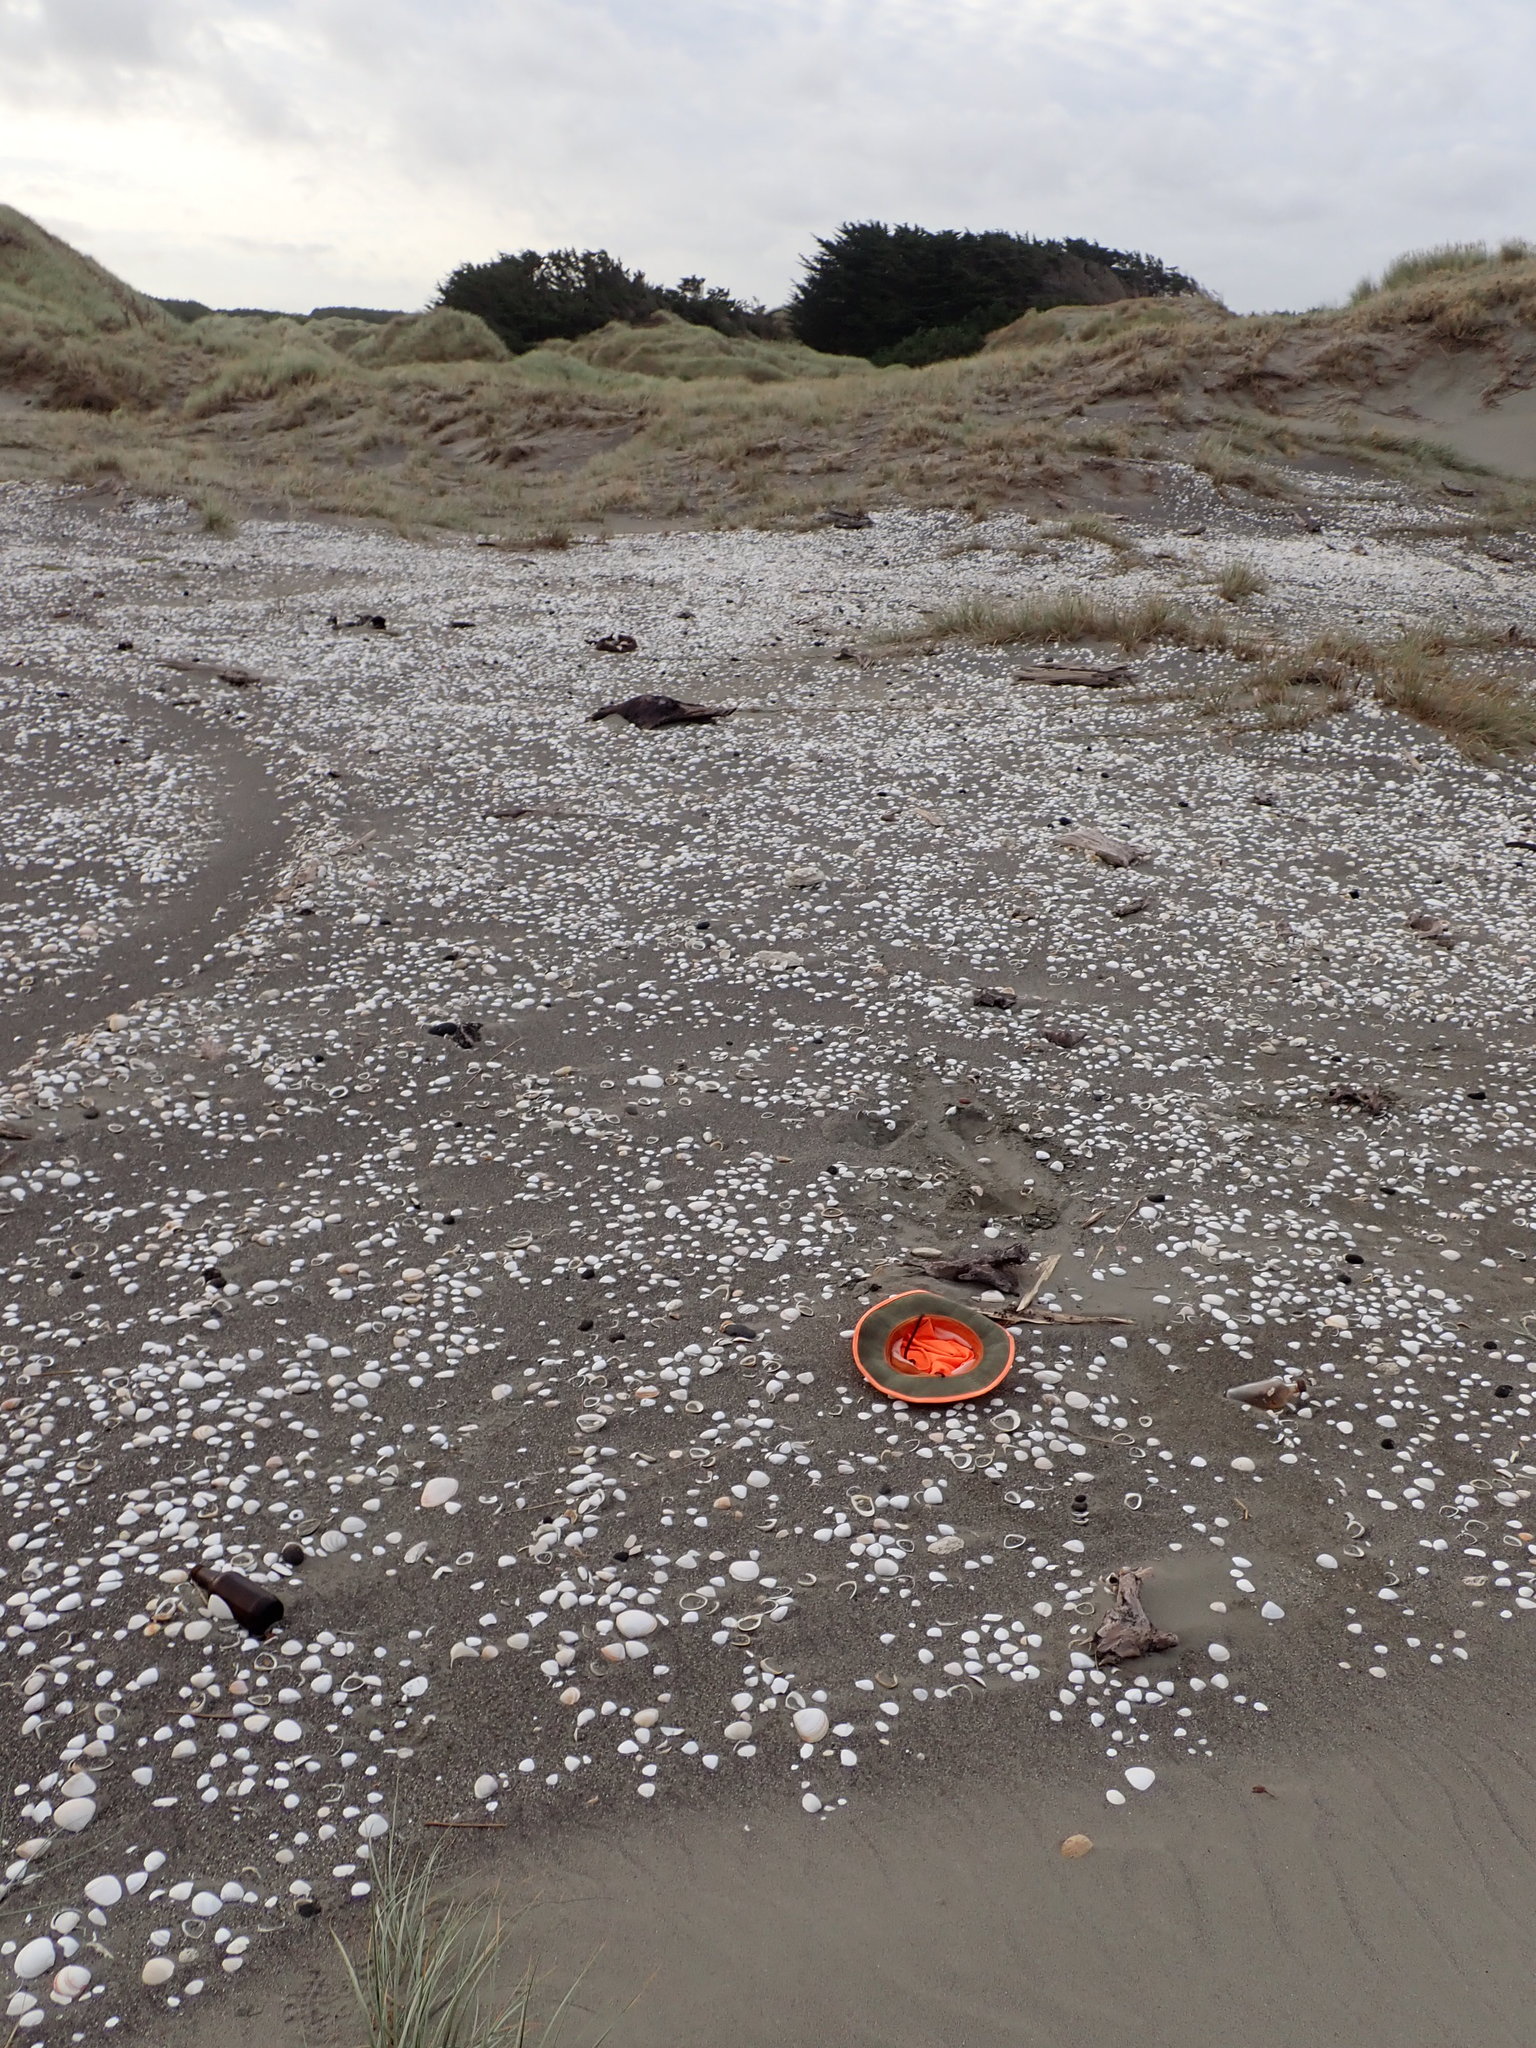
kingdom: Animalia
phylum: Arthropoda
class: Arachnida
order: Araneae
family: Theridiidae
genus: Latrodectus
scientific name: Latrodectus katipo
